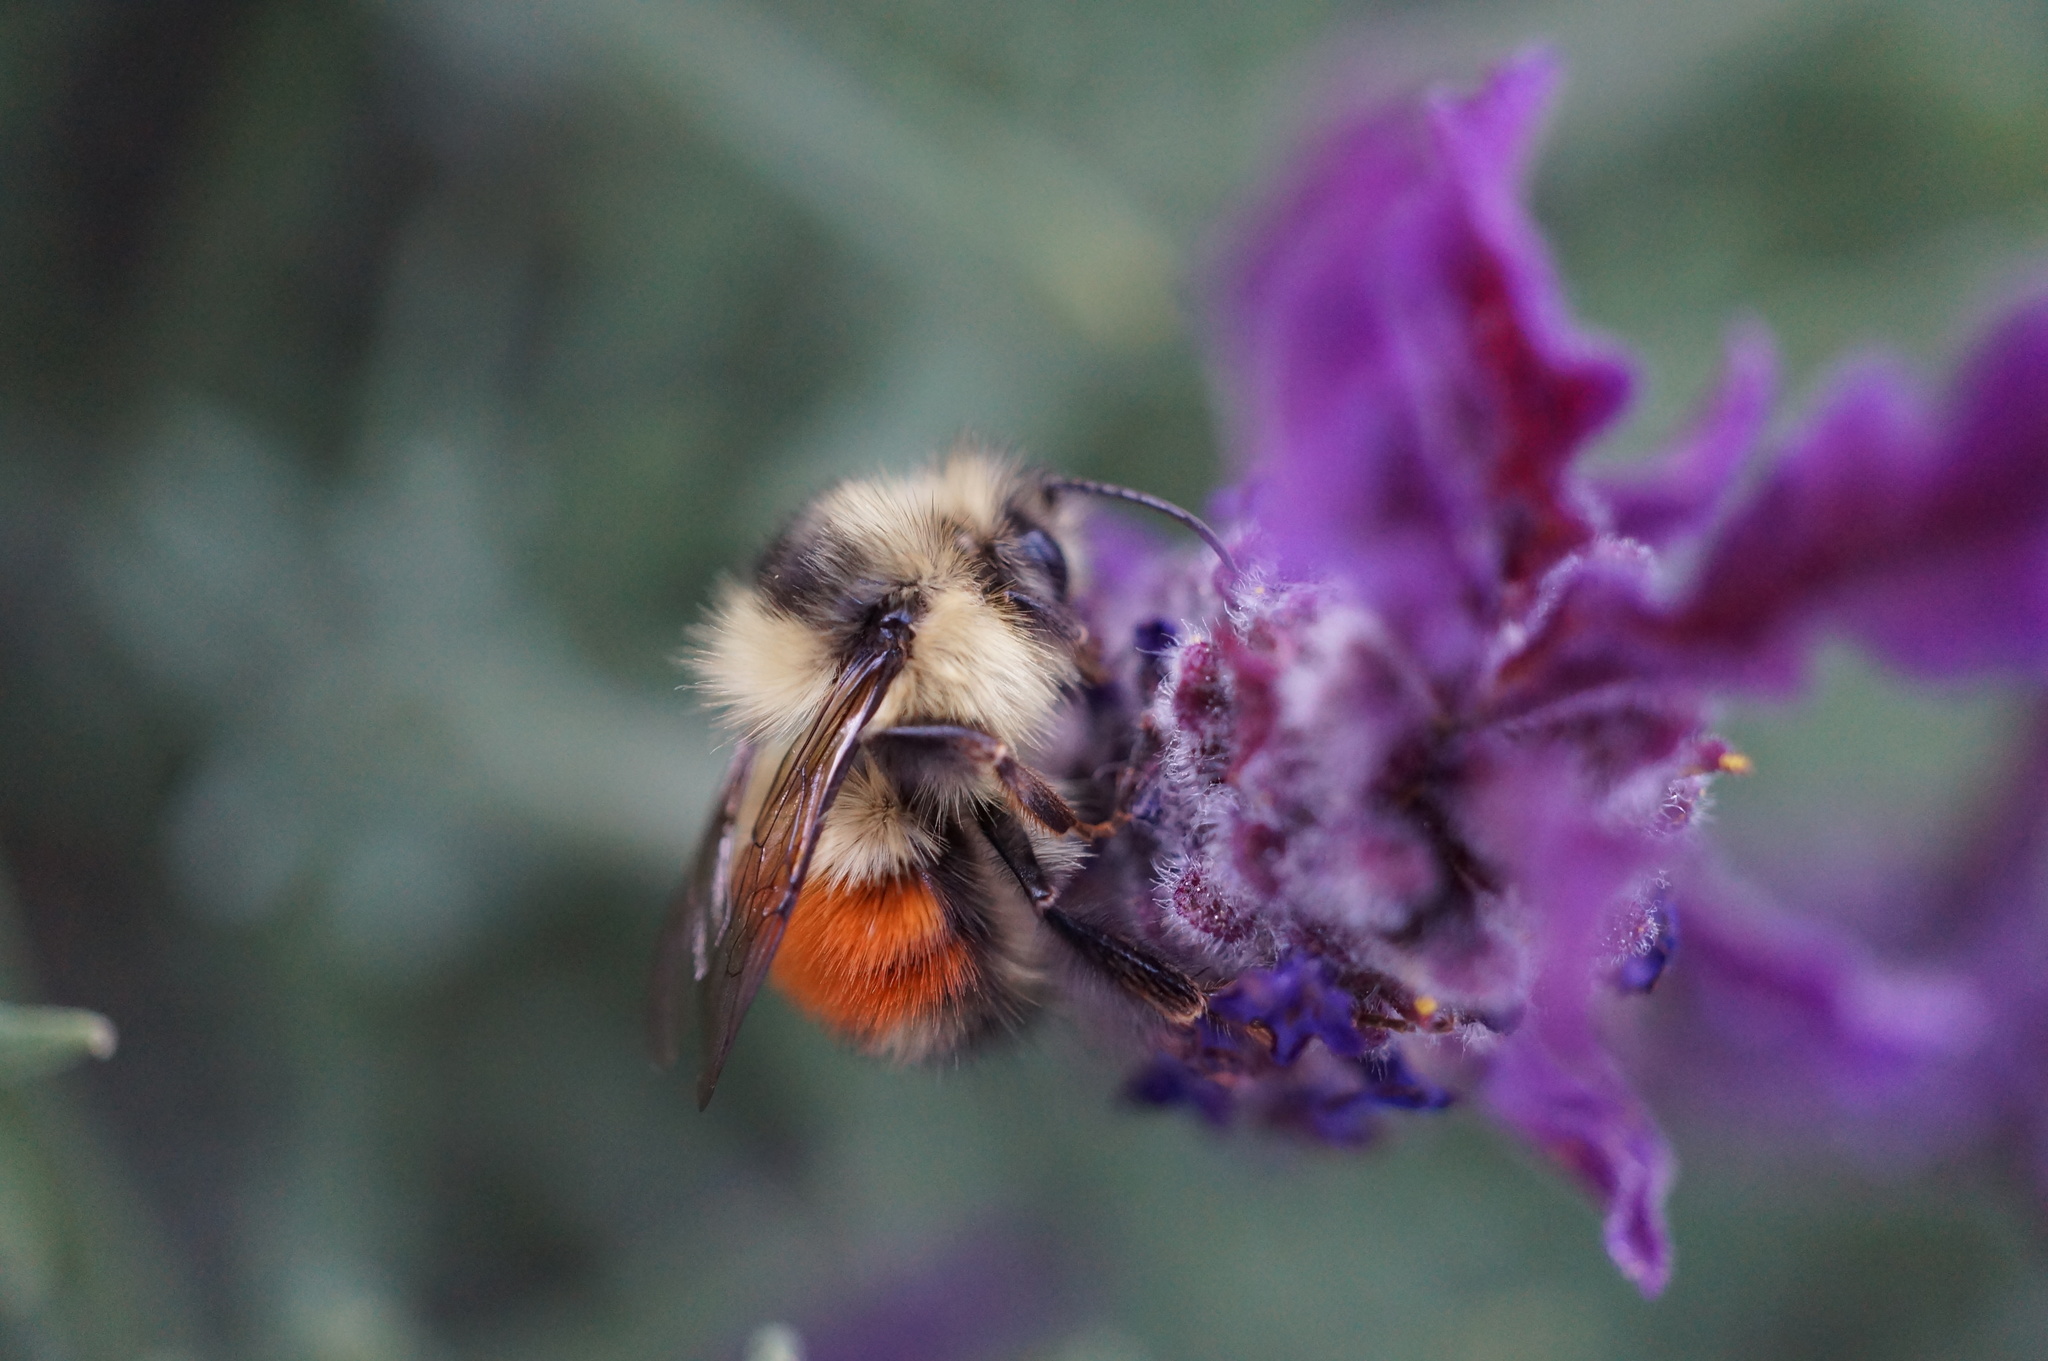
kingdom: Animalia
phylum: Arthropoda
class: Insecta
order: Hymenoptera
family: Apidae
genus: Bombus
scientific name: Bombus melanopygus
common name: Black tail bumble bee
